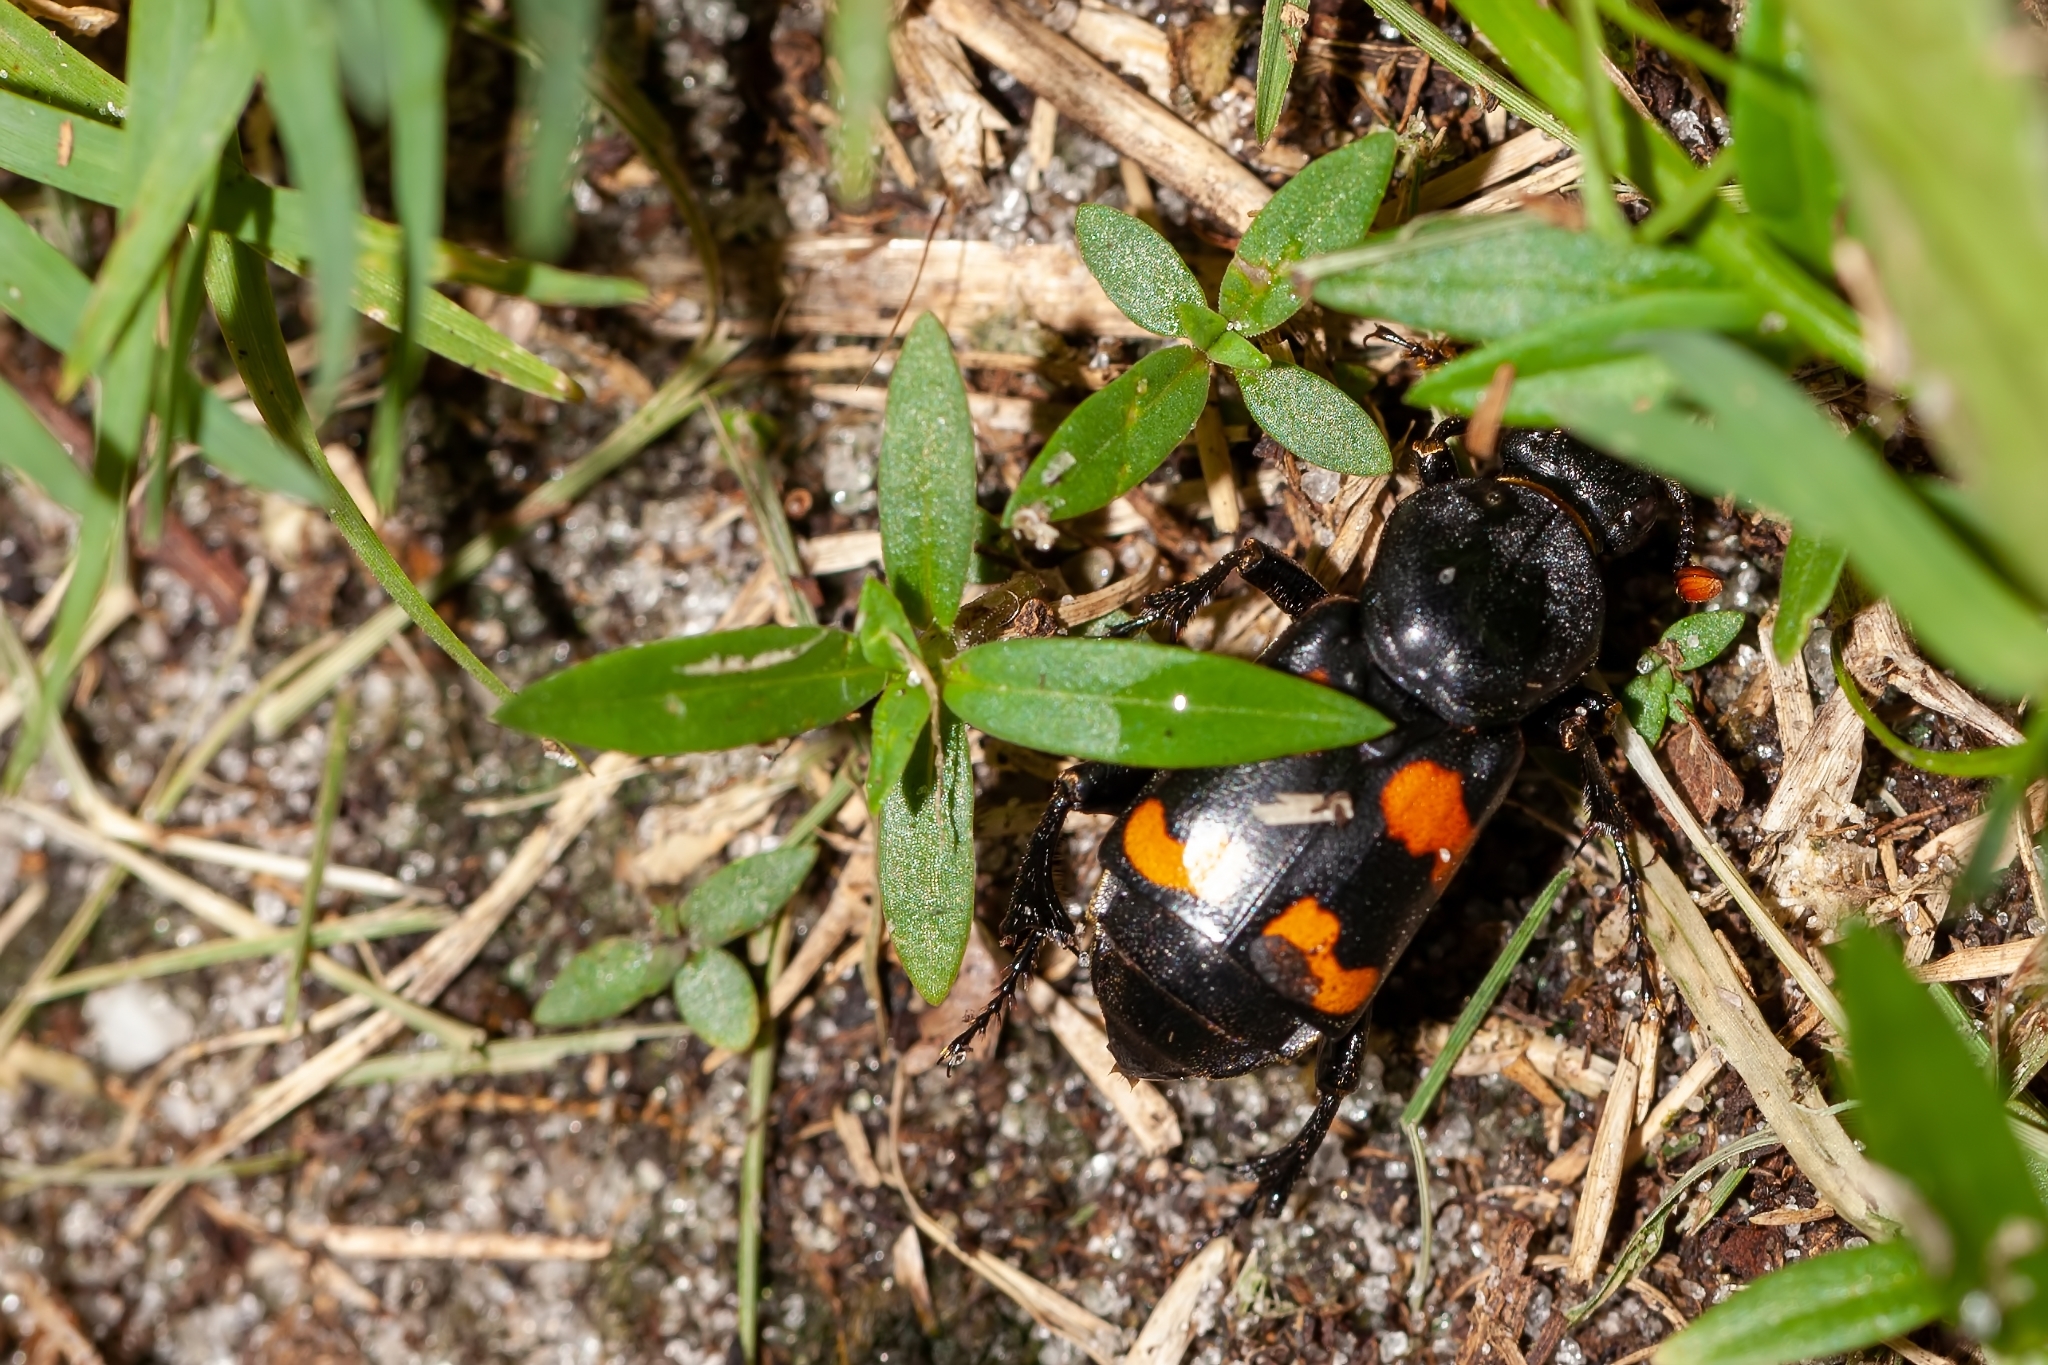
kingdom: Animalia
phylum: Arthropoda
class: Insecta
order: Coleoptera
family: Staphylinidae
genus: Nicrophorus
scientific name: Nicrophorus carolinus
